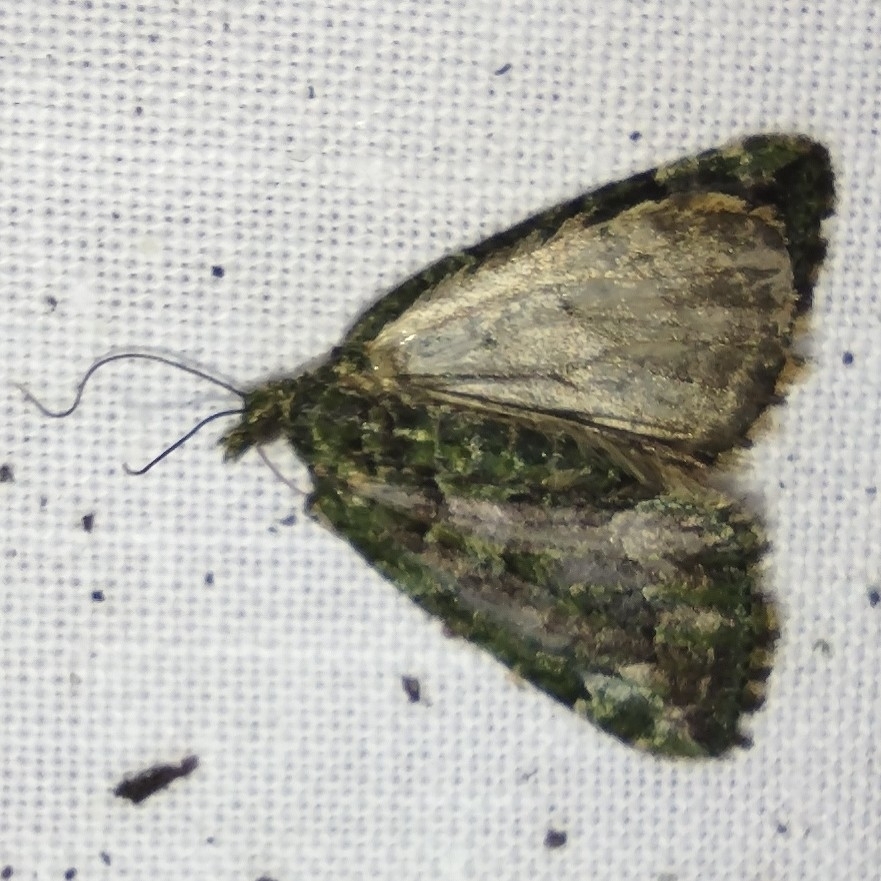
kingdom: Animalia
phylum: Arthropoda
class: Insecta
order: Lepidoptera
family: Geometridae
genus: Chloroclysta
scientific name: Chloroclysta siterata
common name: Red-green carpet
